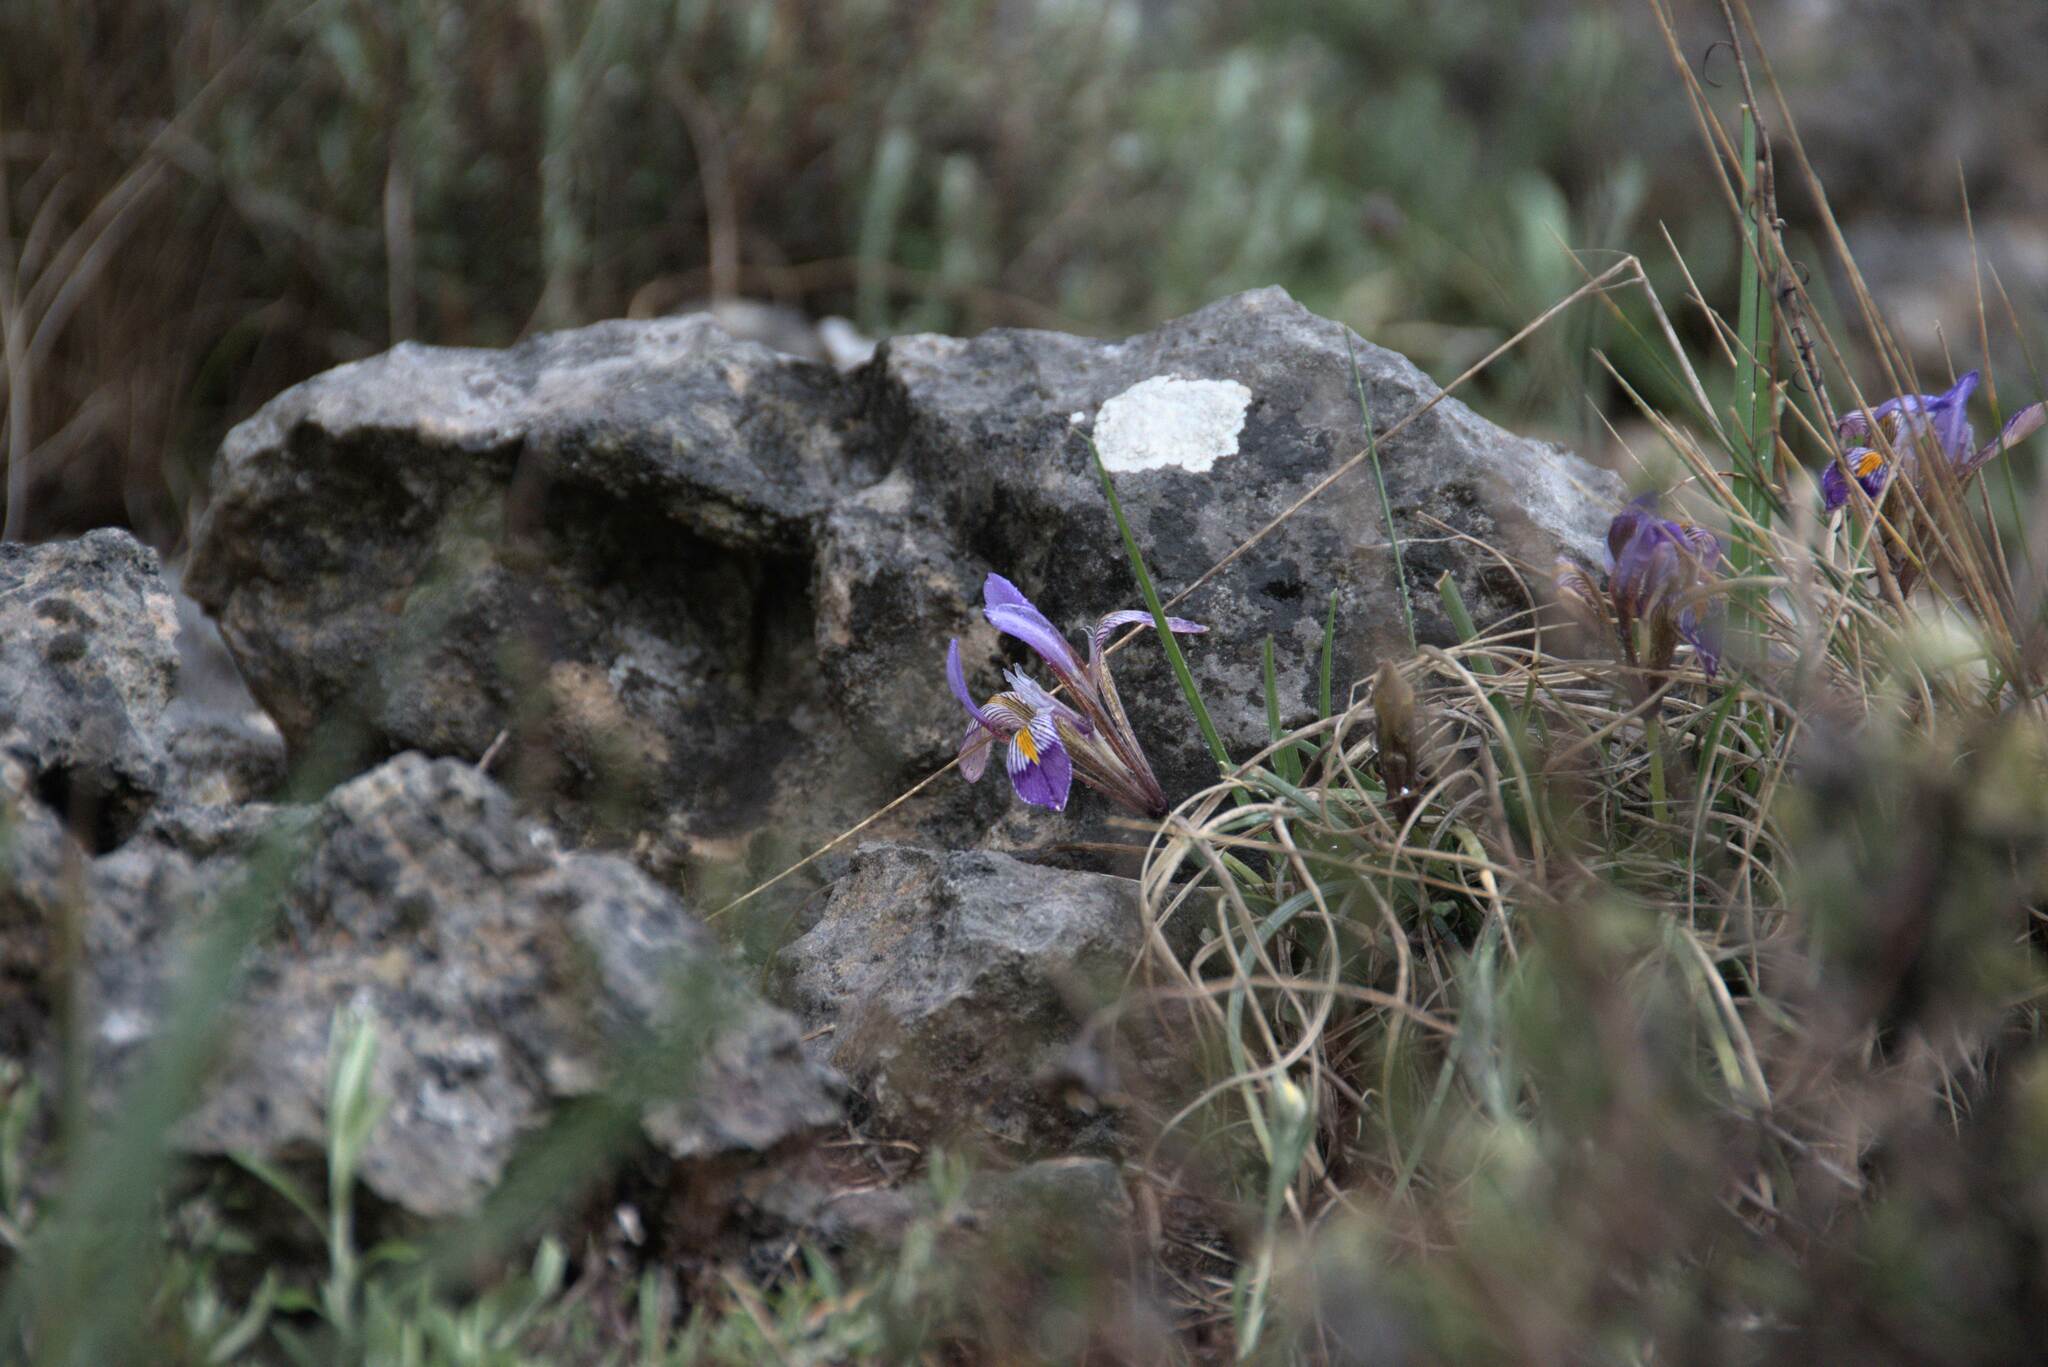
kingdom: Plantae
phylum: Tracheophyta
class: Liliopsida
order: Asparagales
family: Iridaceae
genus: Iris
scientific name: Iris unguicularis
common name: Algerian iris
